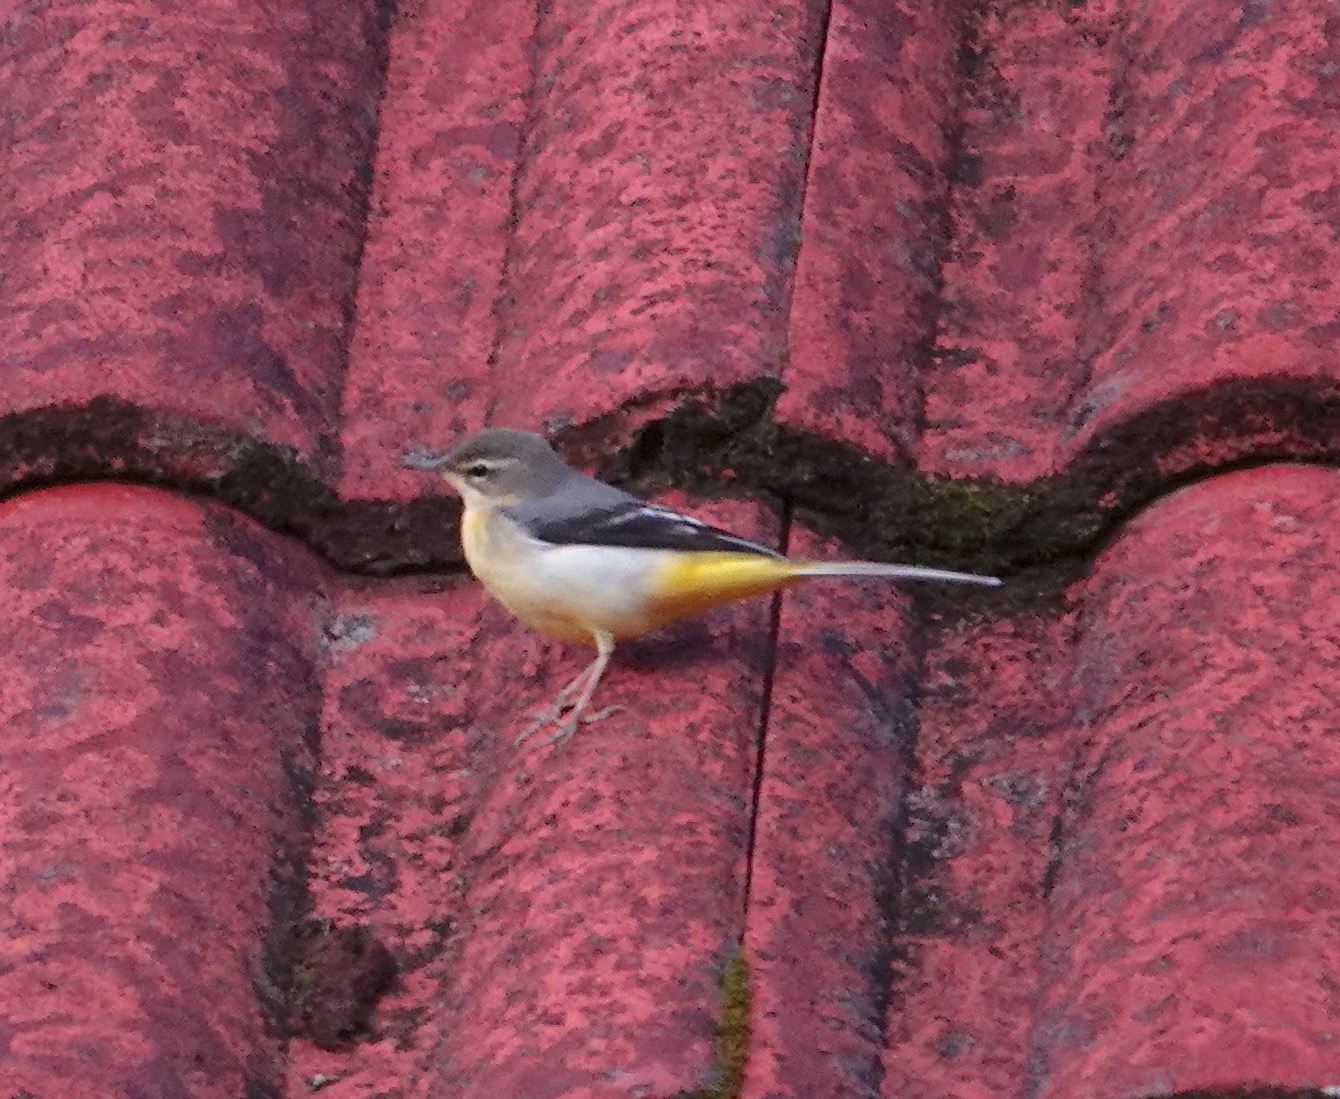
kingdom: Animalia
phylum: Chordata
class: Aves
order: Passeriformes
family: Motacillidae
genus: Motacilla
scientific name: Motacilla cinerea
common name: Grey wagtail
